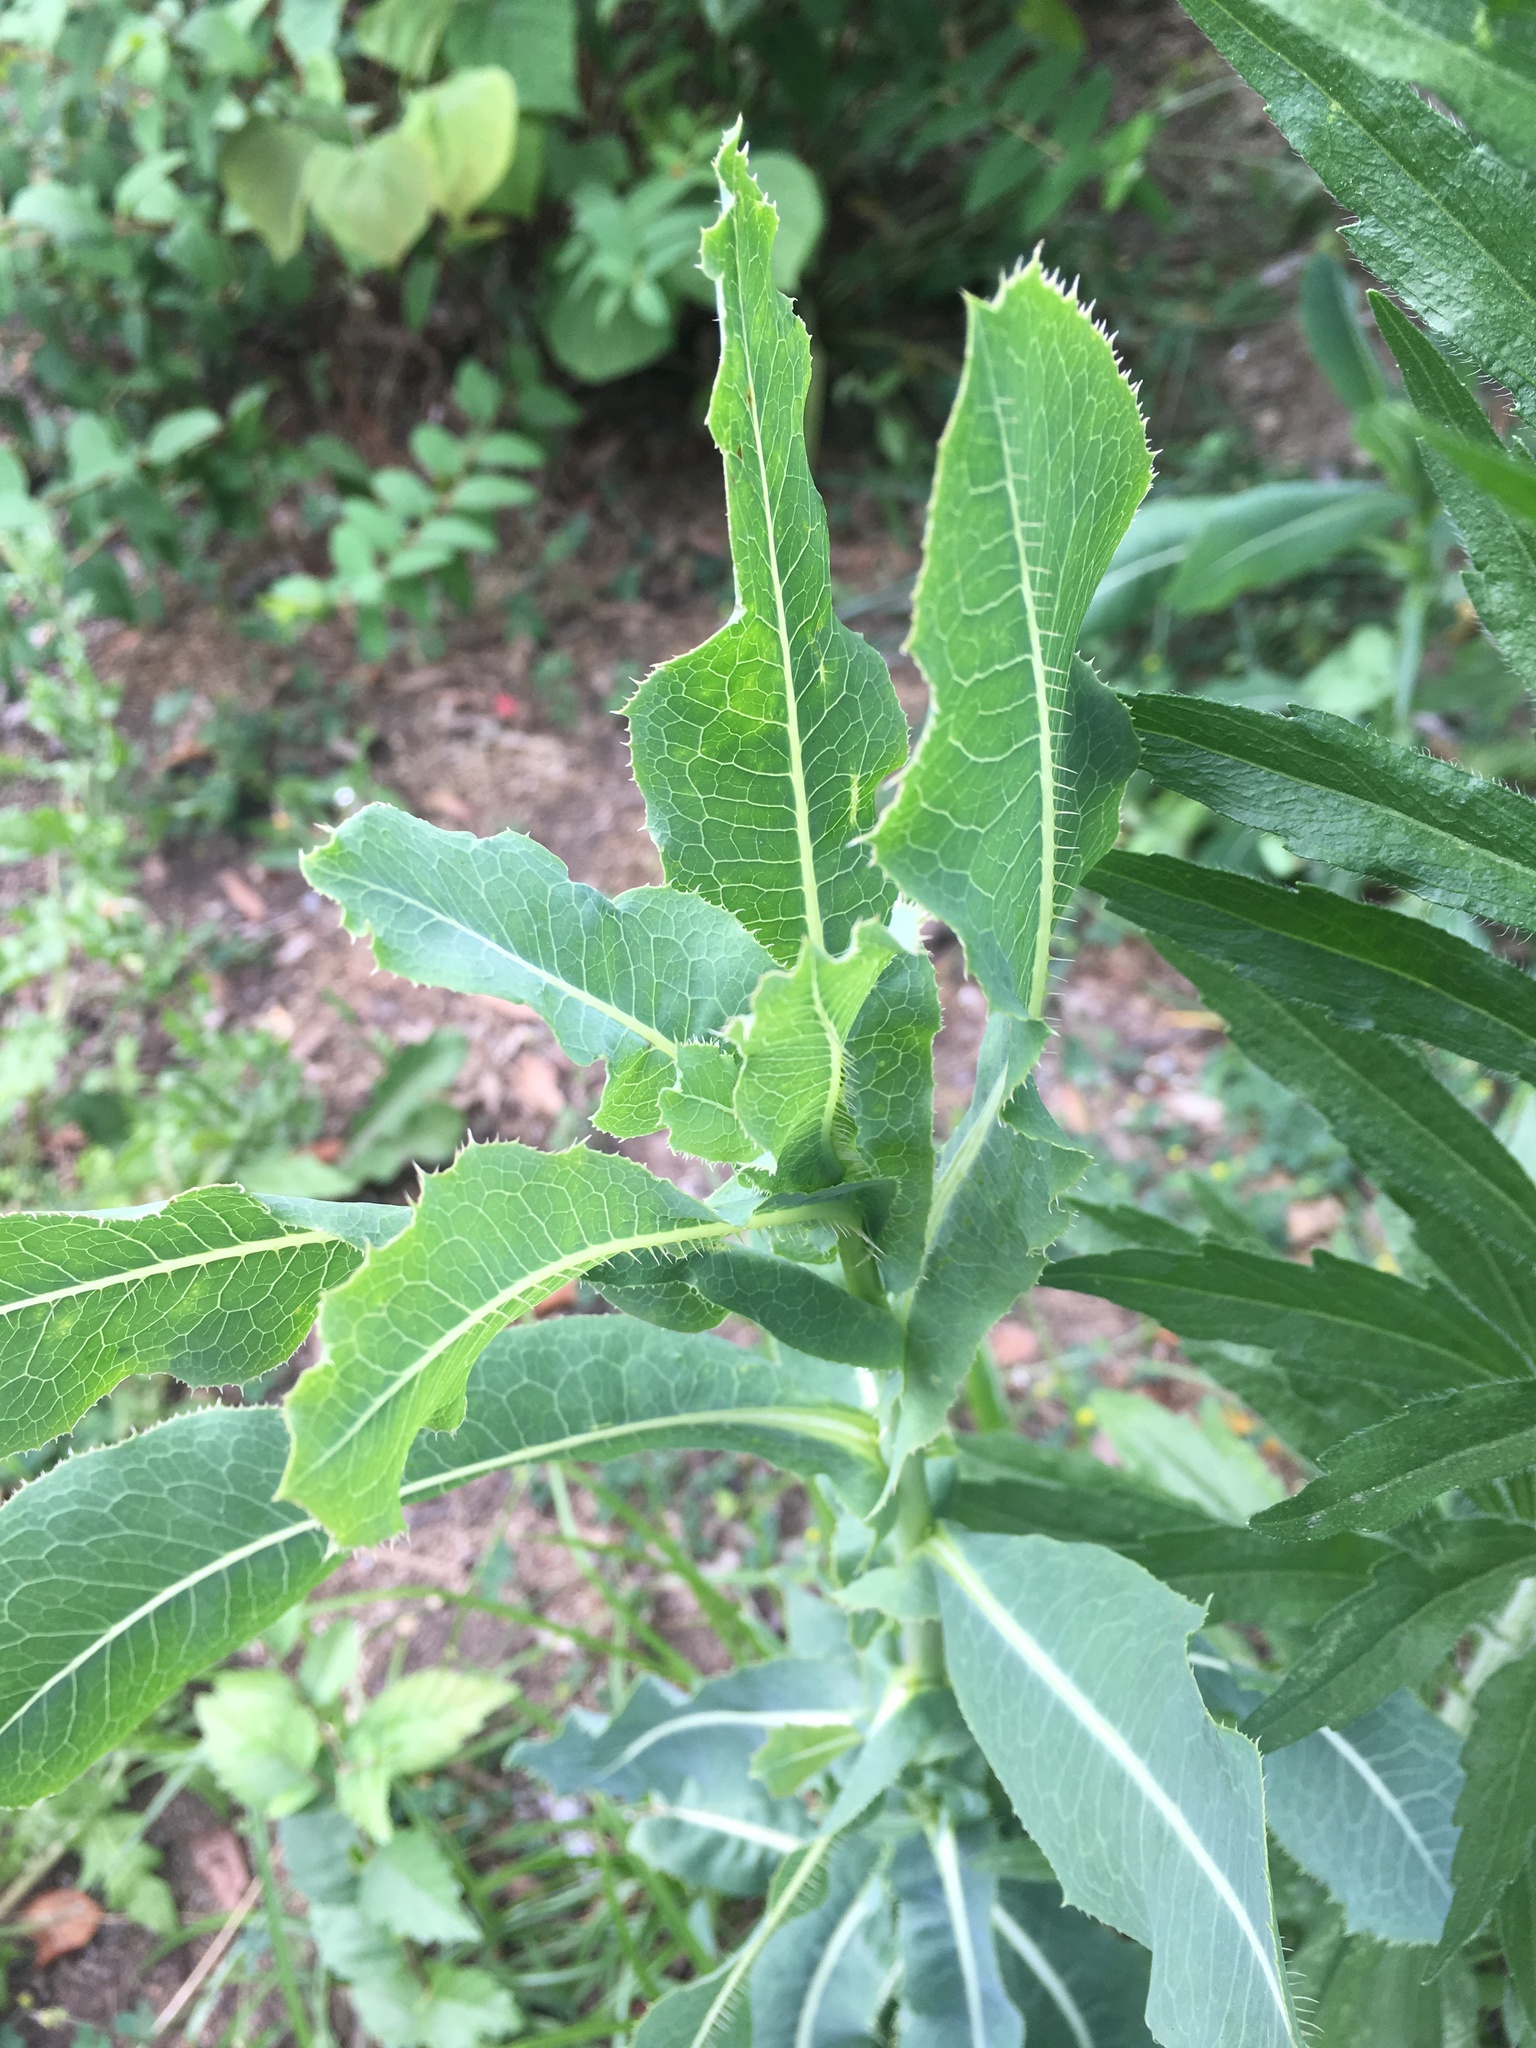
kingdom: Plantae
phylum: Tracheophyta
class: Magnoliopsida
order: Asterales
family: Asteraceae
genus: Lactuca
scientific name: Lactuca serriola
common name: Prickly lettuce
